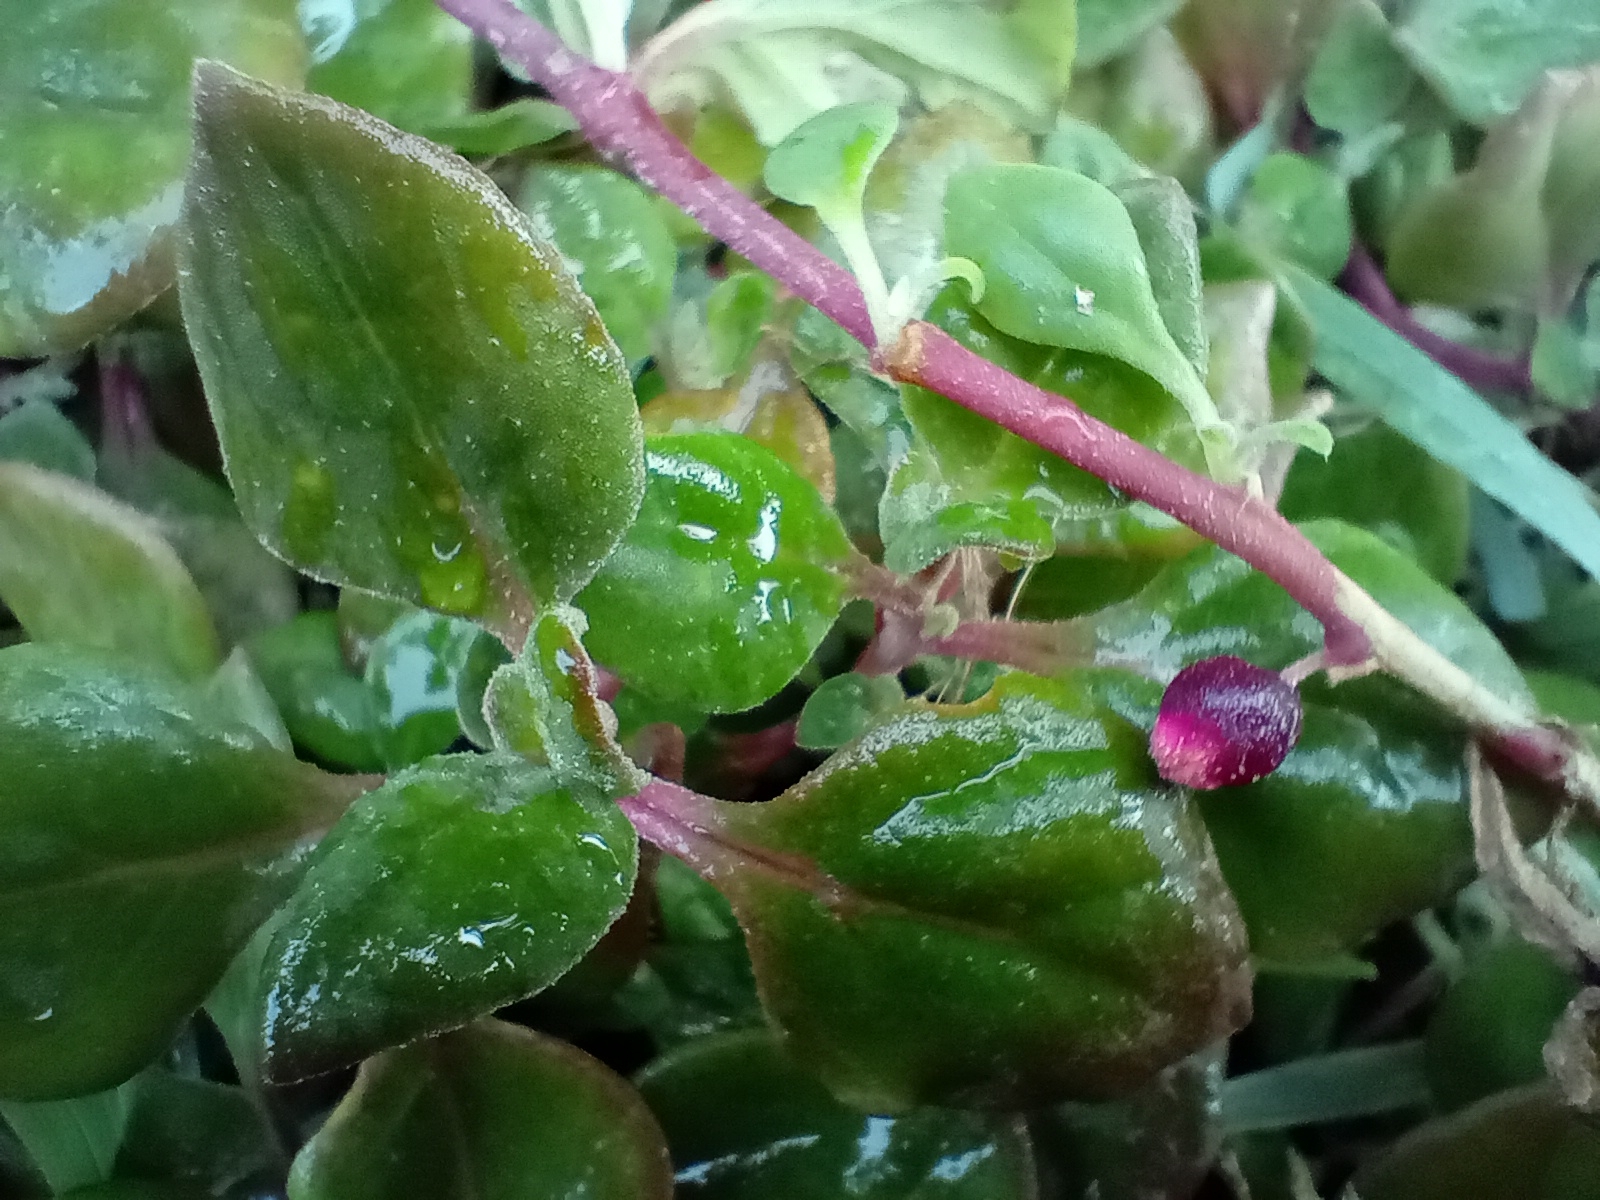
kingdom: Plantae
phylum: Tracheophyta
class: Magnoliopsida
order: Caryophyllales
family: Aizoaceae
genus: Tetragonia
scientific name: Tetragonia implexicoma
